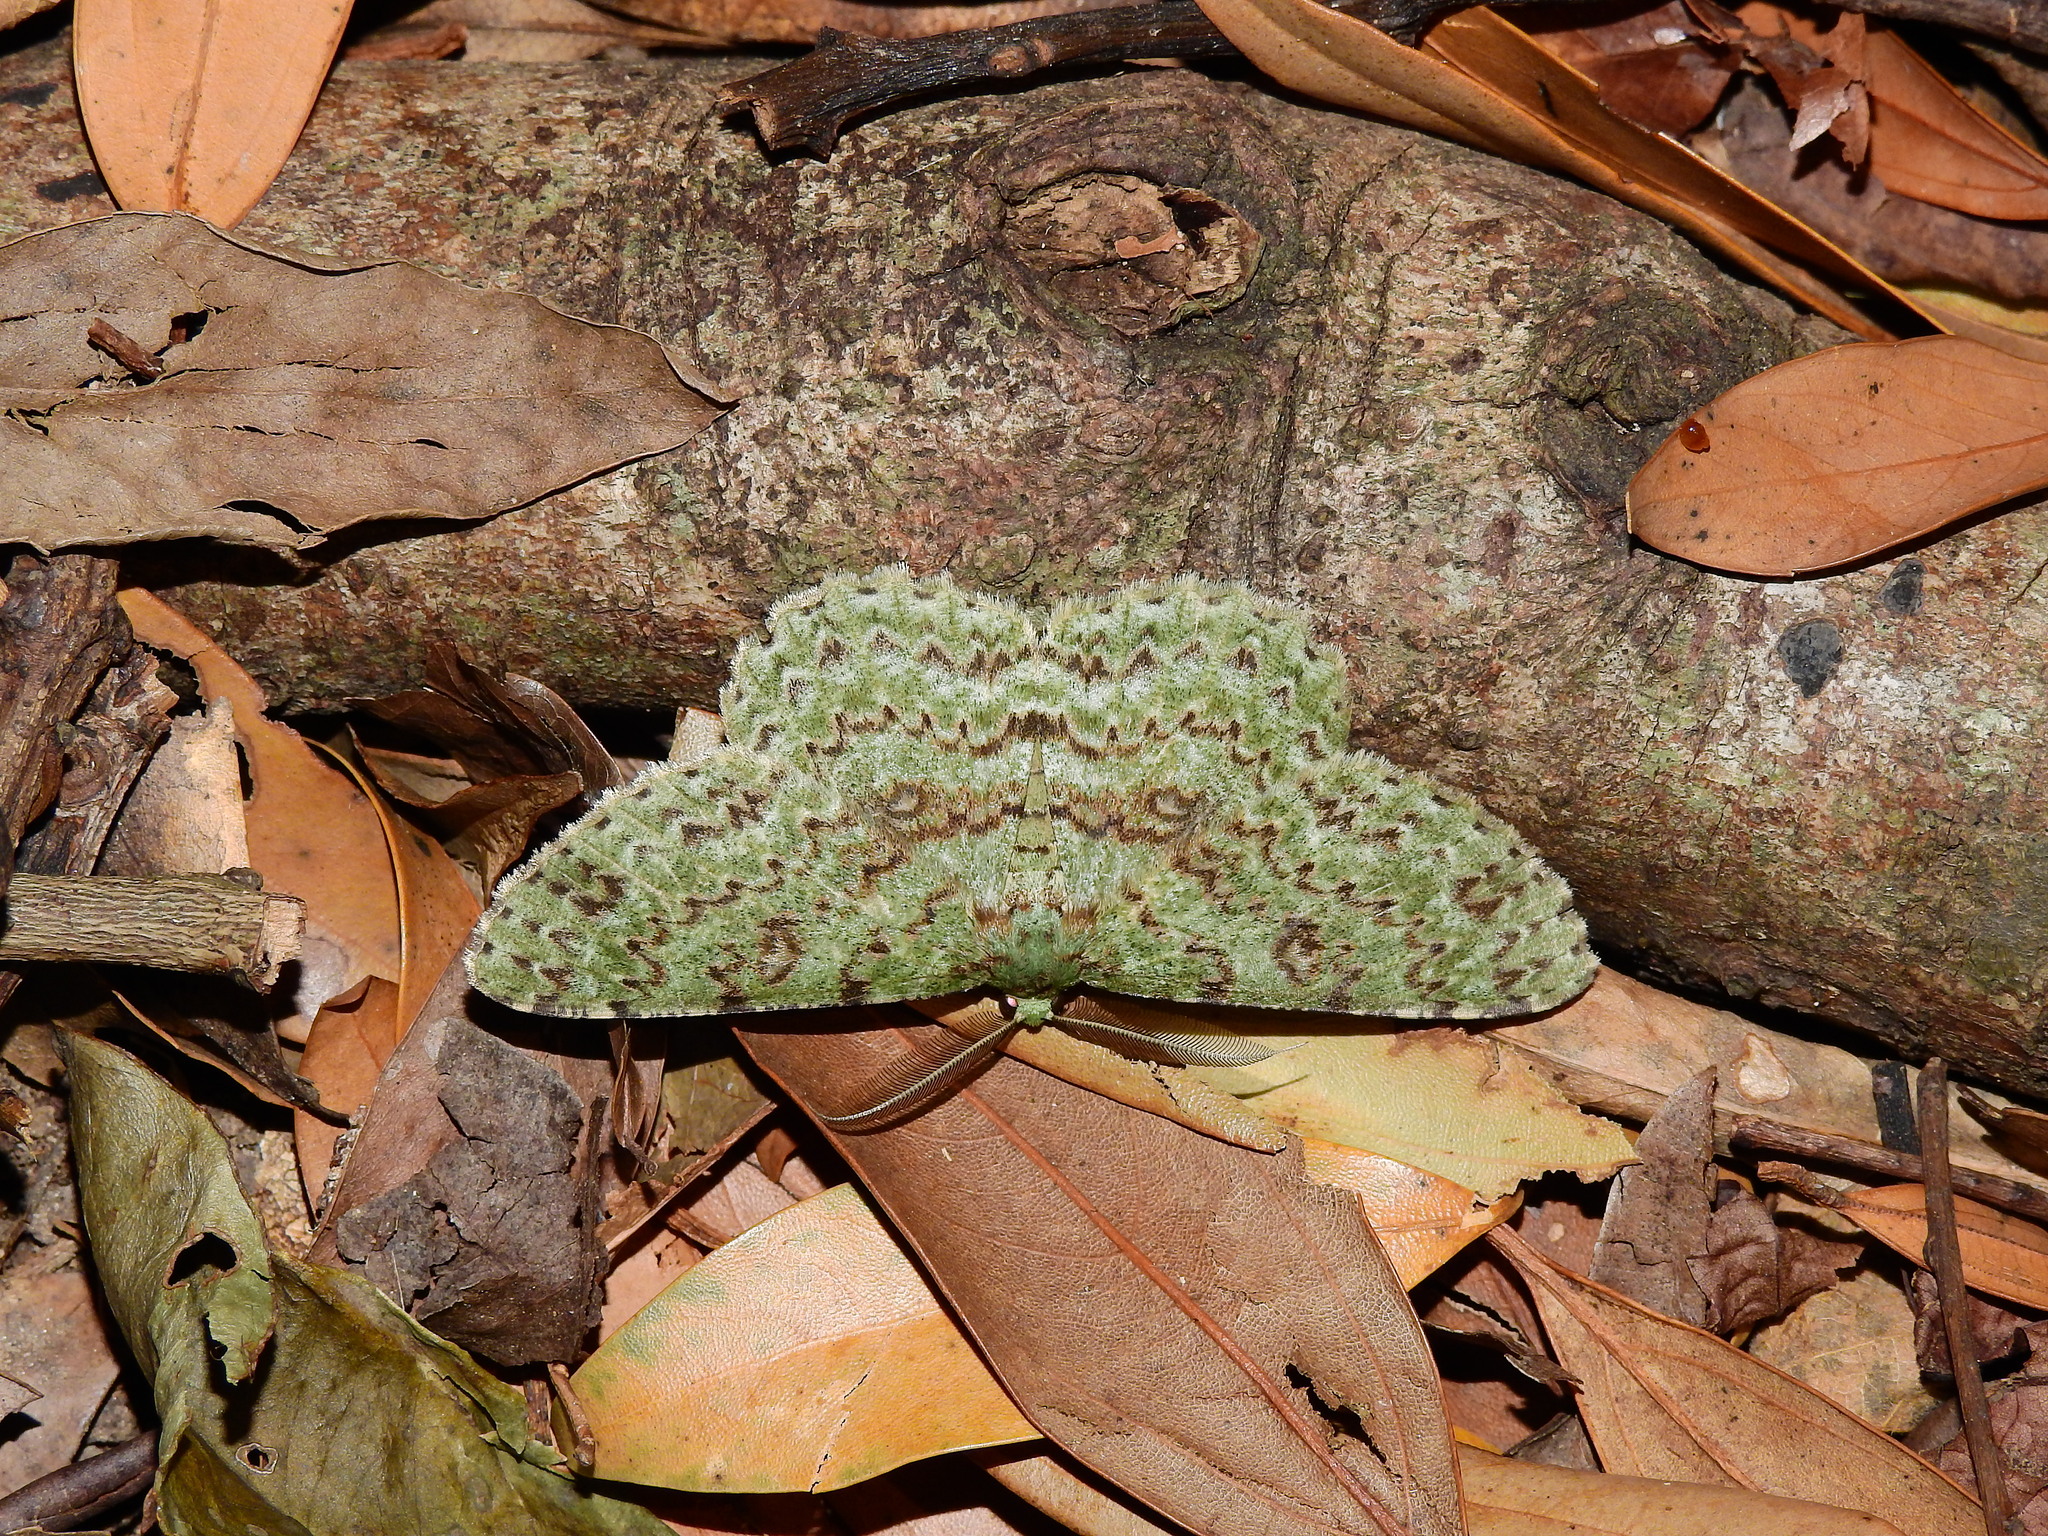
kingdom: Animalia
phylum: Arthropoda
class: Insecta
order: Lepidoptera
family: Geometridae
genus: Ophthalmitis
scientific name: Ophthalmitis herbidaria
